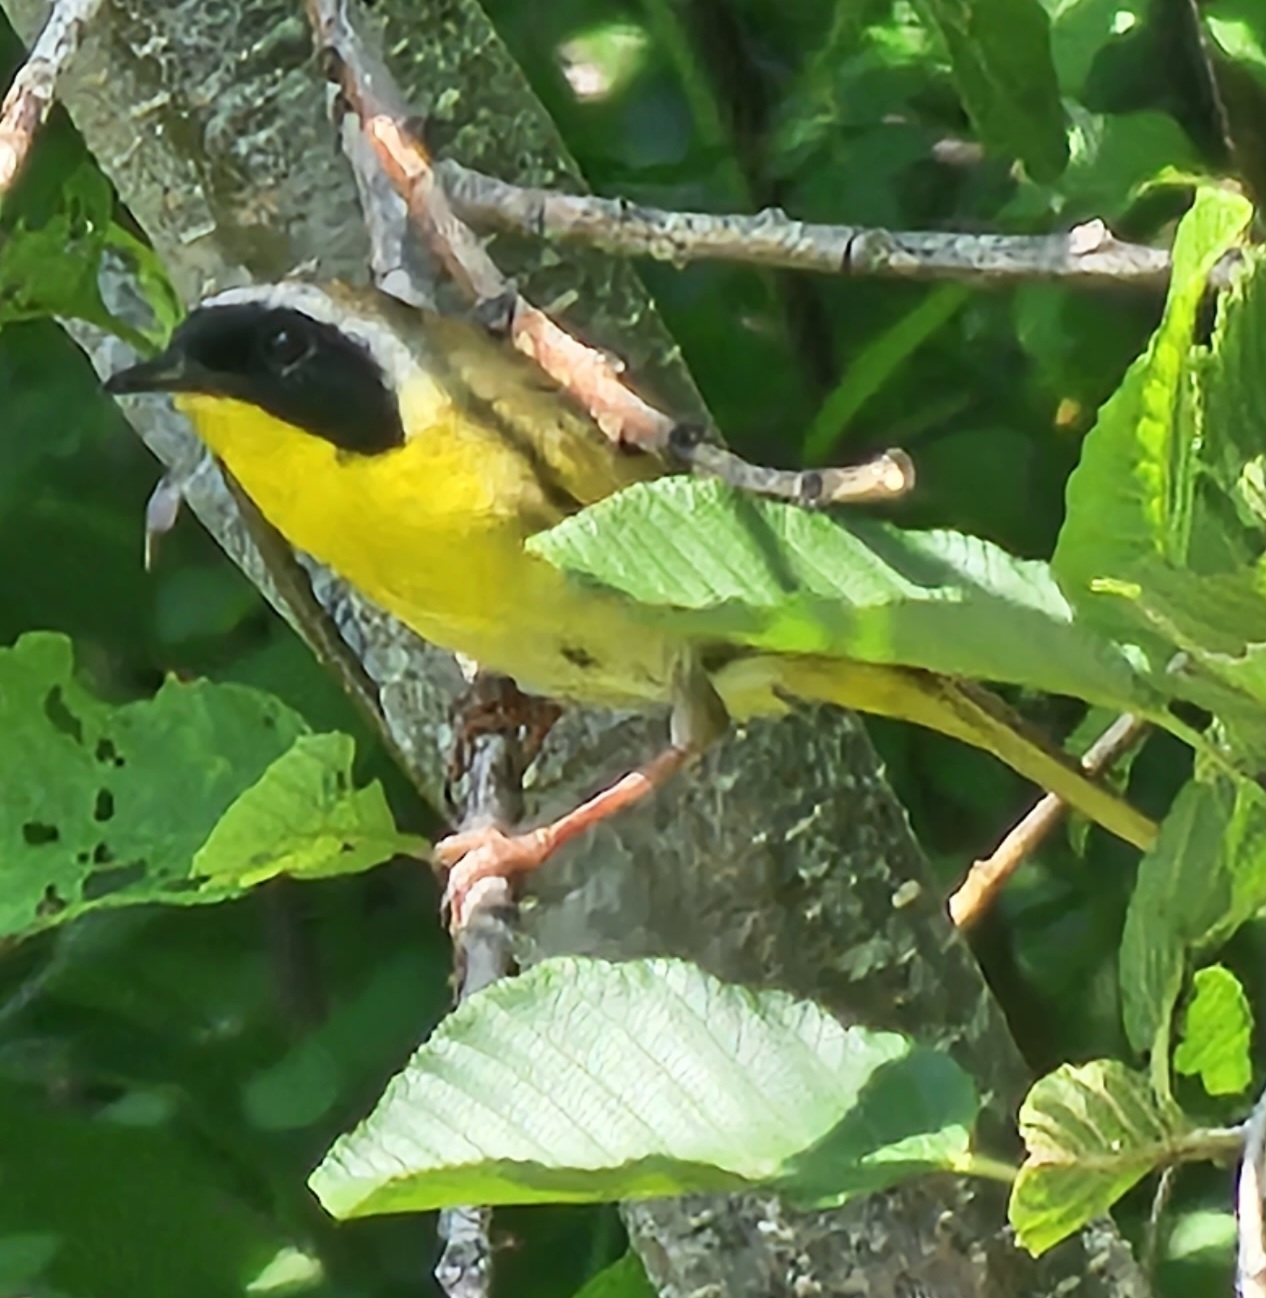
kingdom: Animalia
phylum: Chordata
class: Aves
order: Passeriformes
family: Parulidae
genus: Geothlypis
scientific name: Geothlypis trichas
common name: Common yellowthroat
